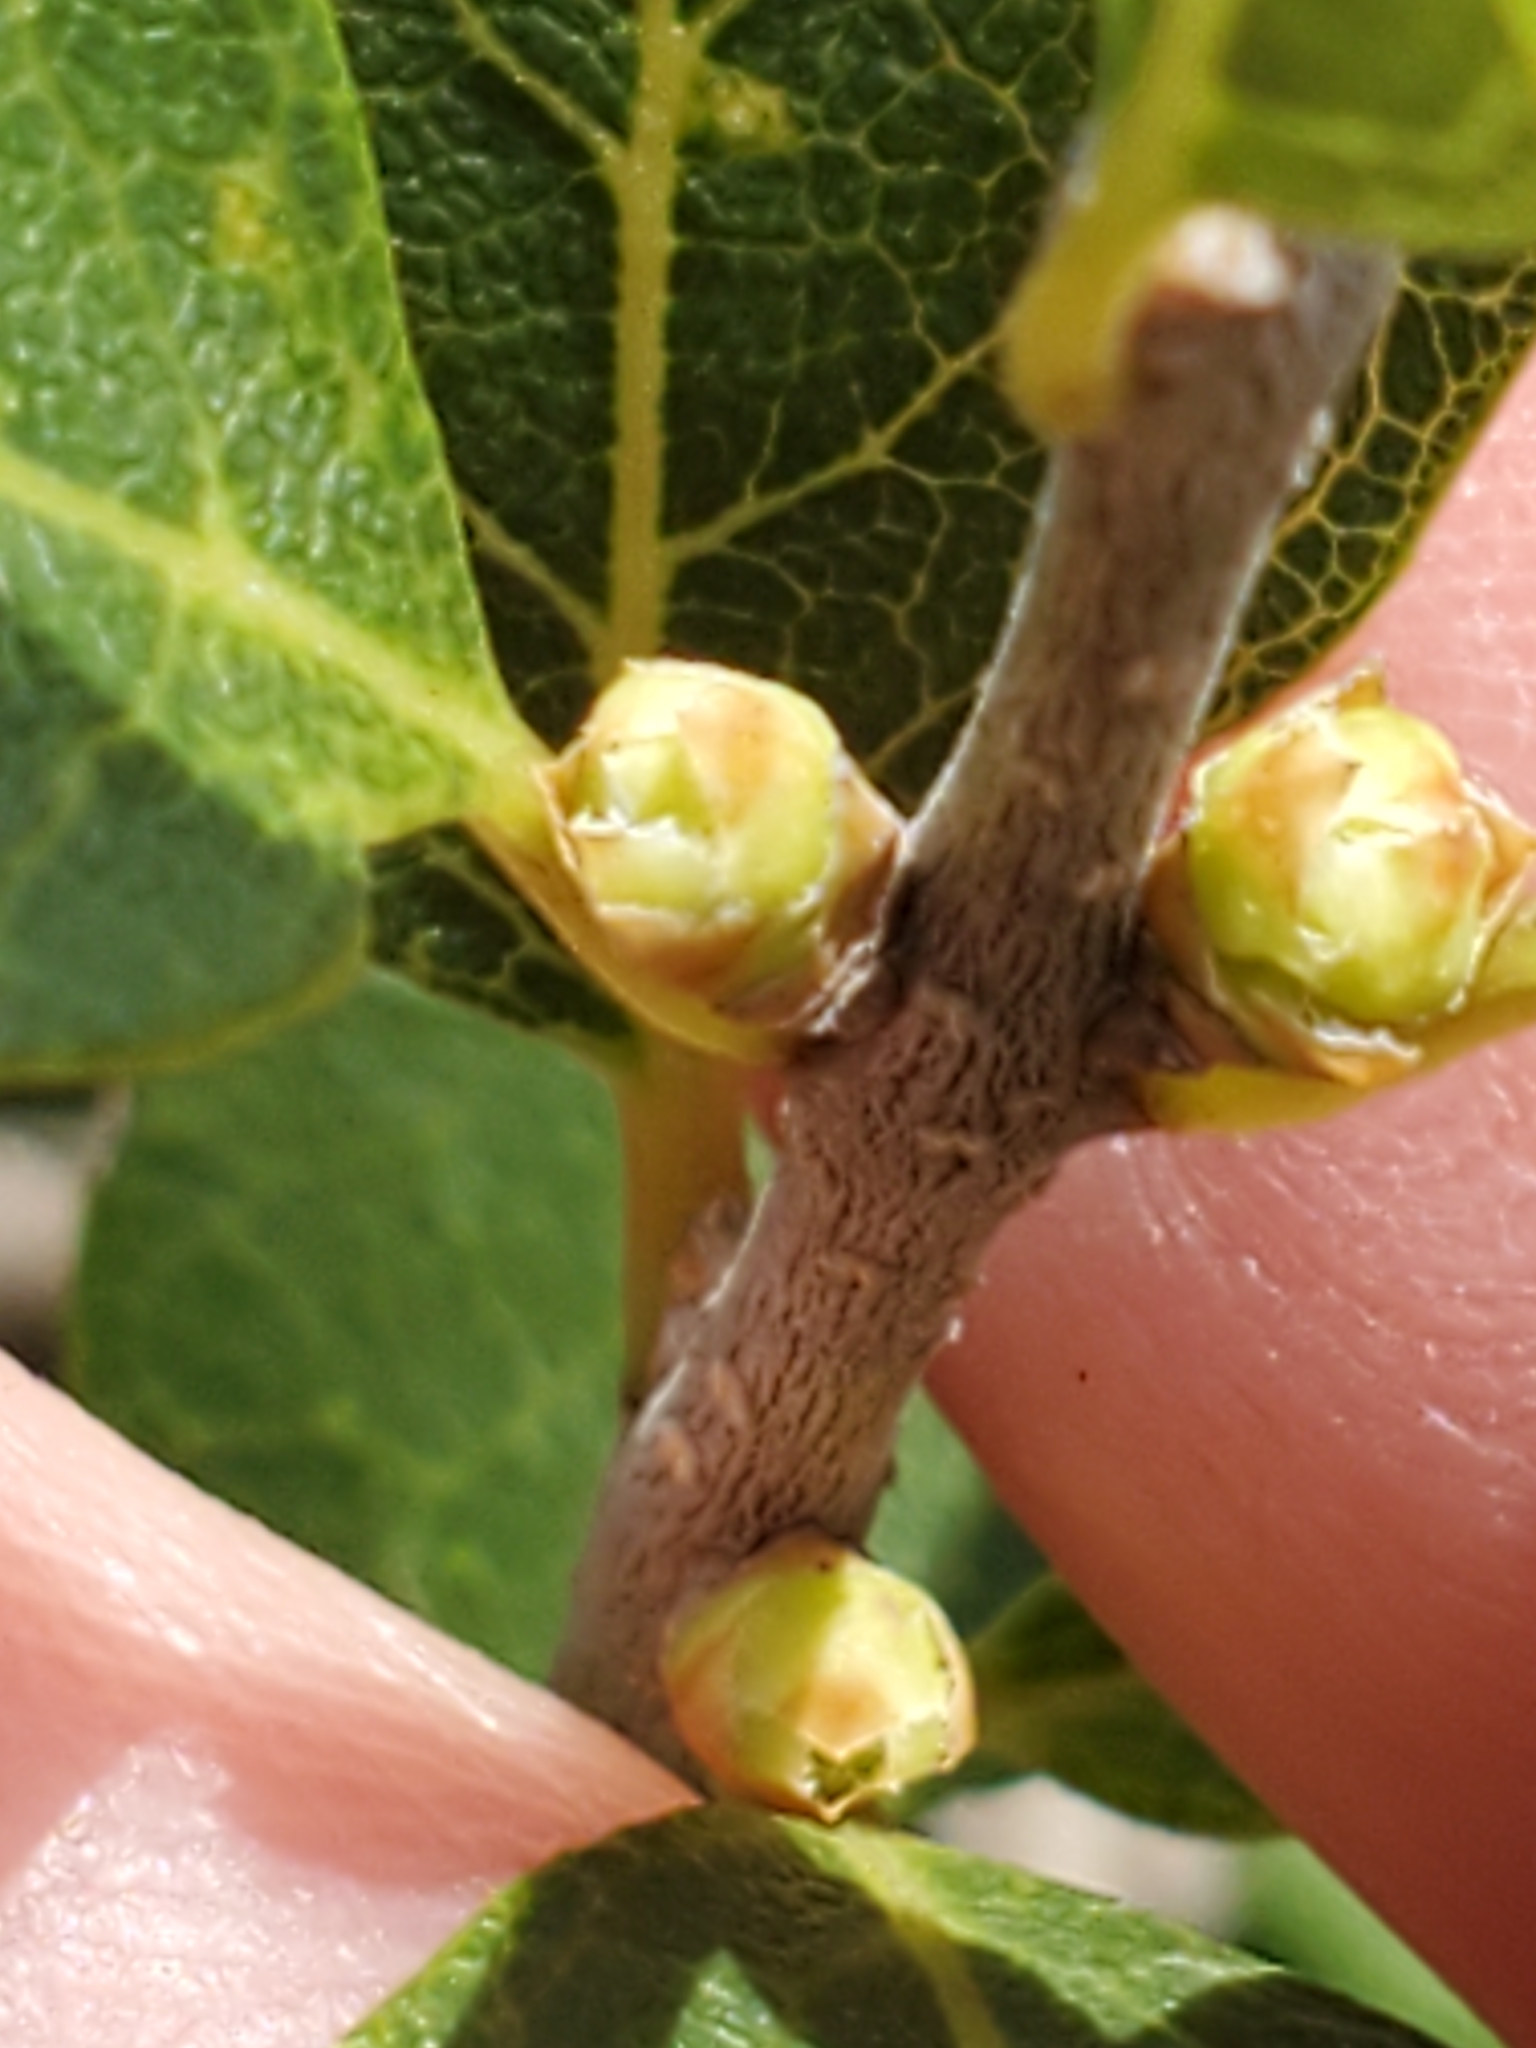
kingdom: Plantae
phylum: Tracheophyta
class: Magnoliopsida
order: Lamiales
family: Oleaceae
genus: Forestiera
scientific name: Forestiera reticulata
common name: Netleaf swamp-privet
